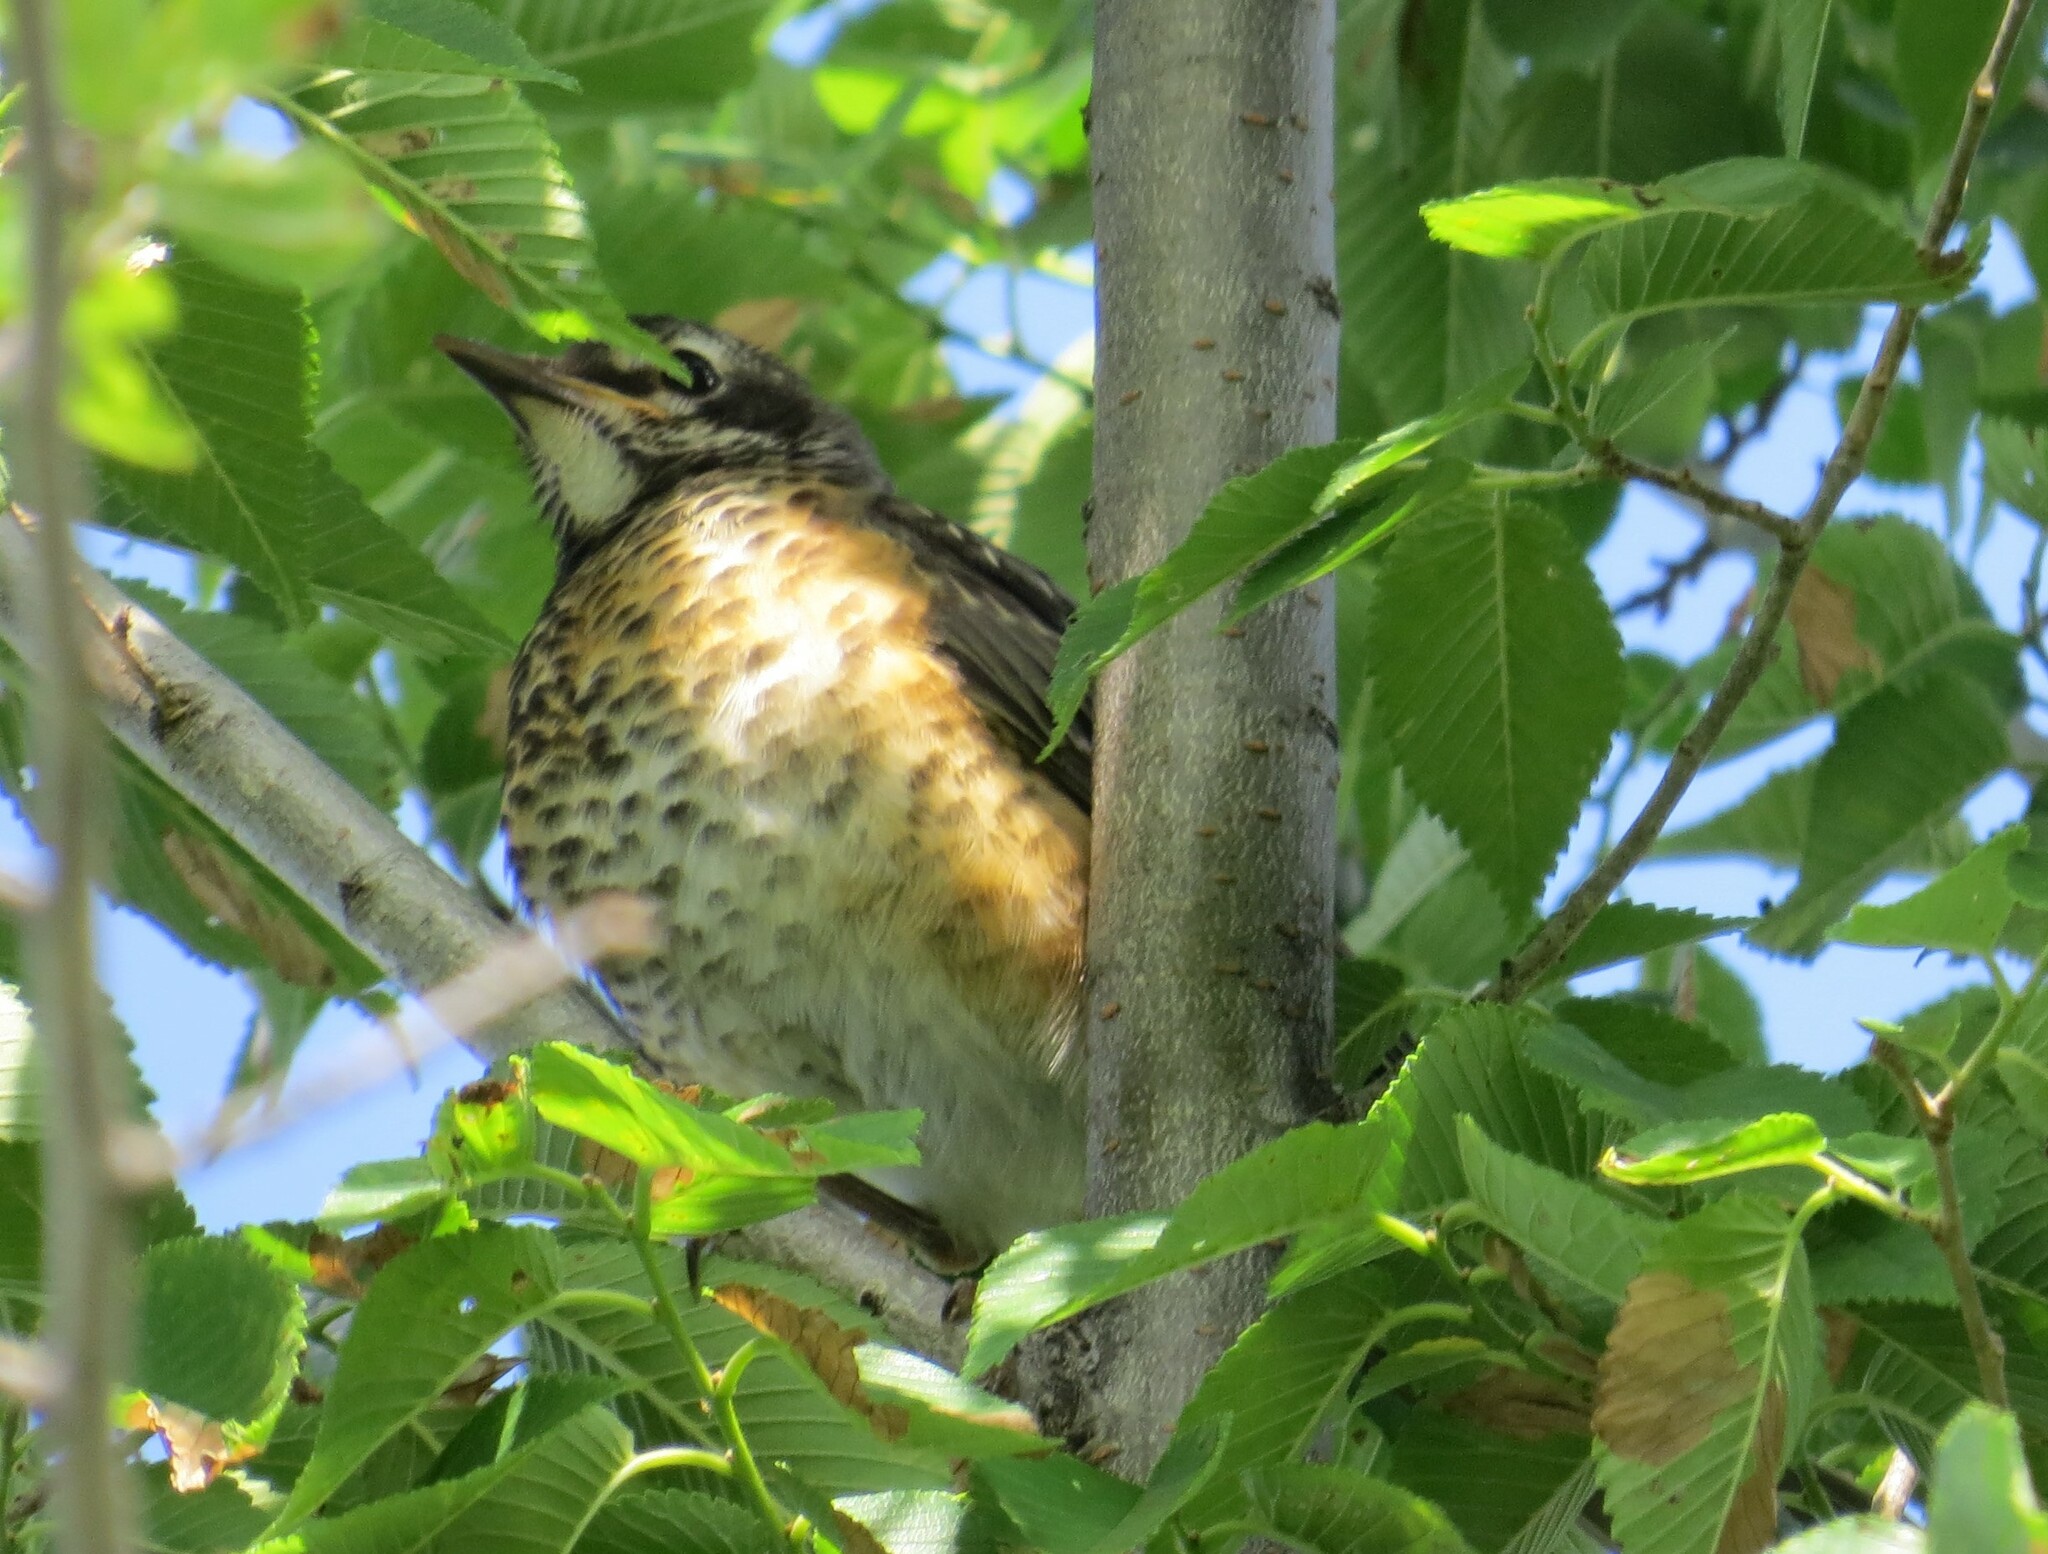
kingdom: Animalia
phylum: Chordata
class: Aves
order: Passeriformes
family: Turdidae
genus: Turdus
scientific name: Turdus migratorius
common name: American robin
